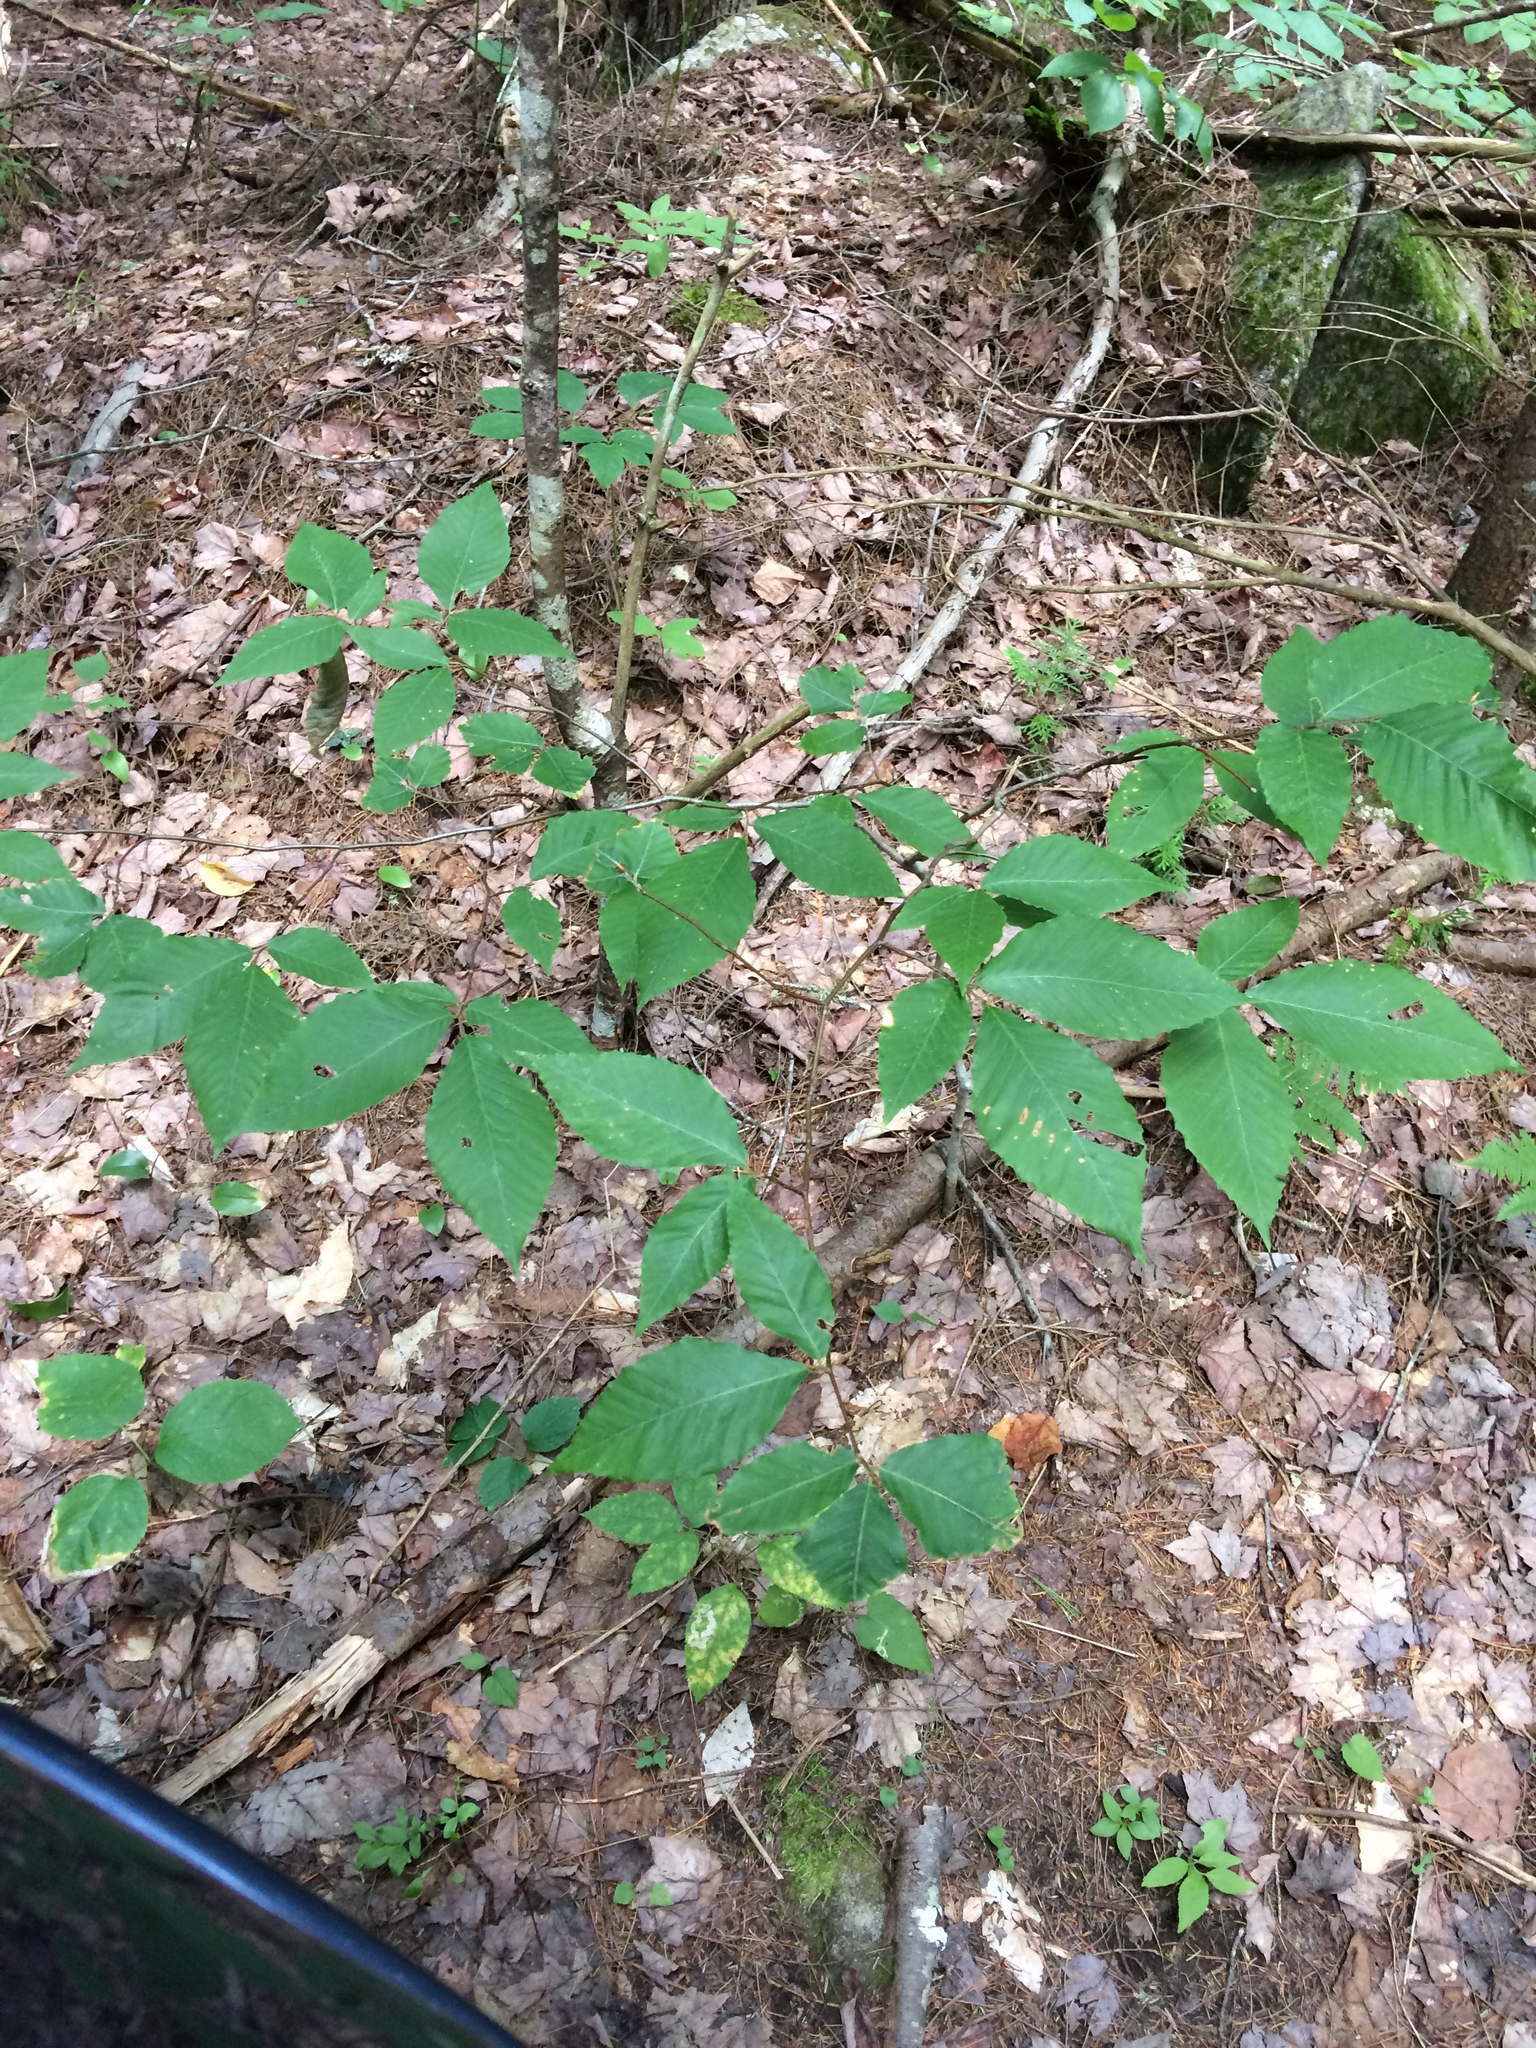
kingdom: Plantae
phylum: Tracheophyta
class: Magnoliopsida
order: Fagales
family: Fagaceae
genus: Fagus
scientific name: Fagus grandifolia
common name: American beech
